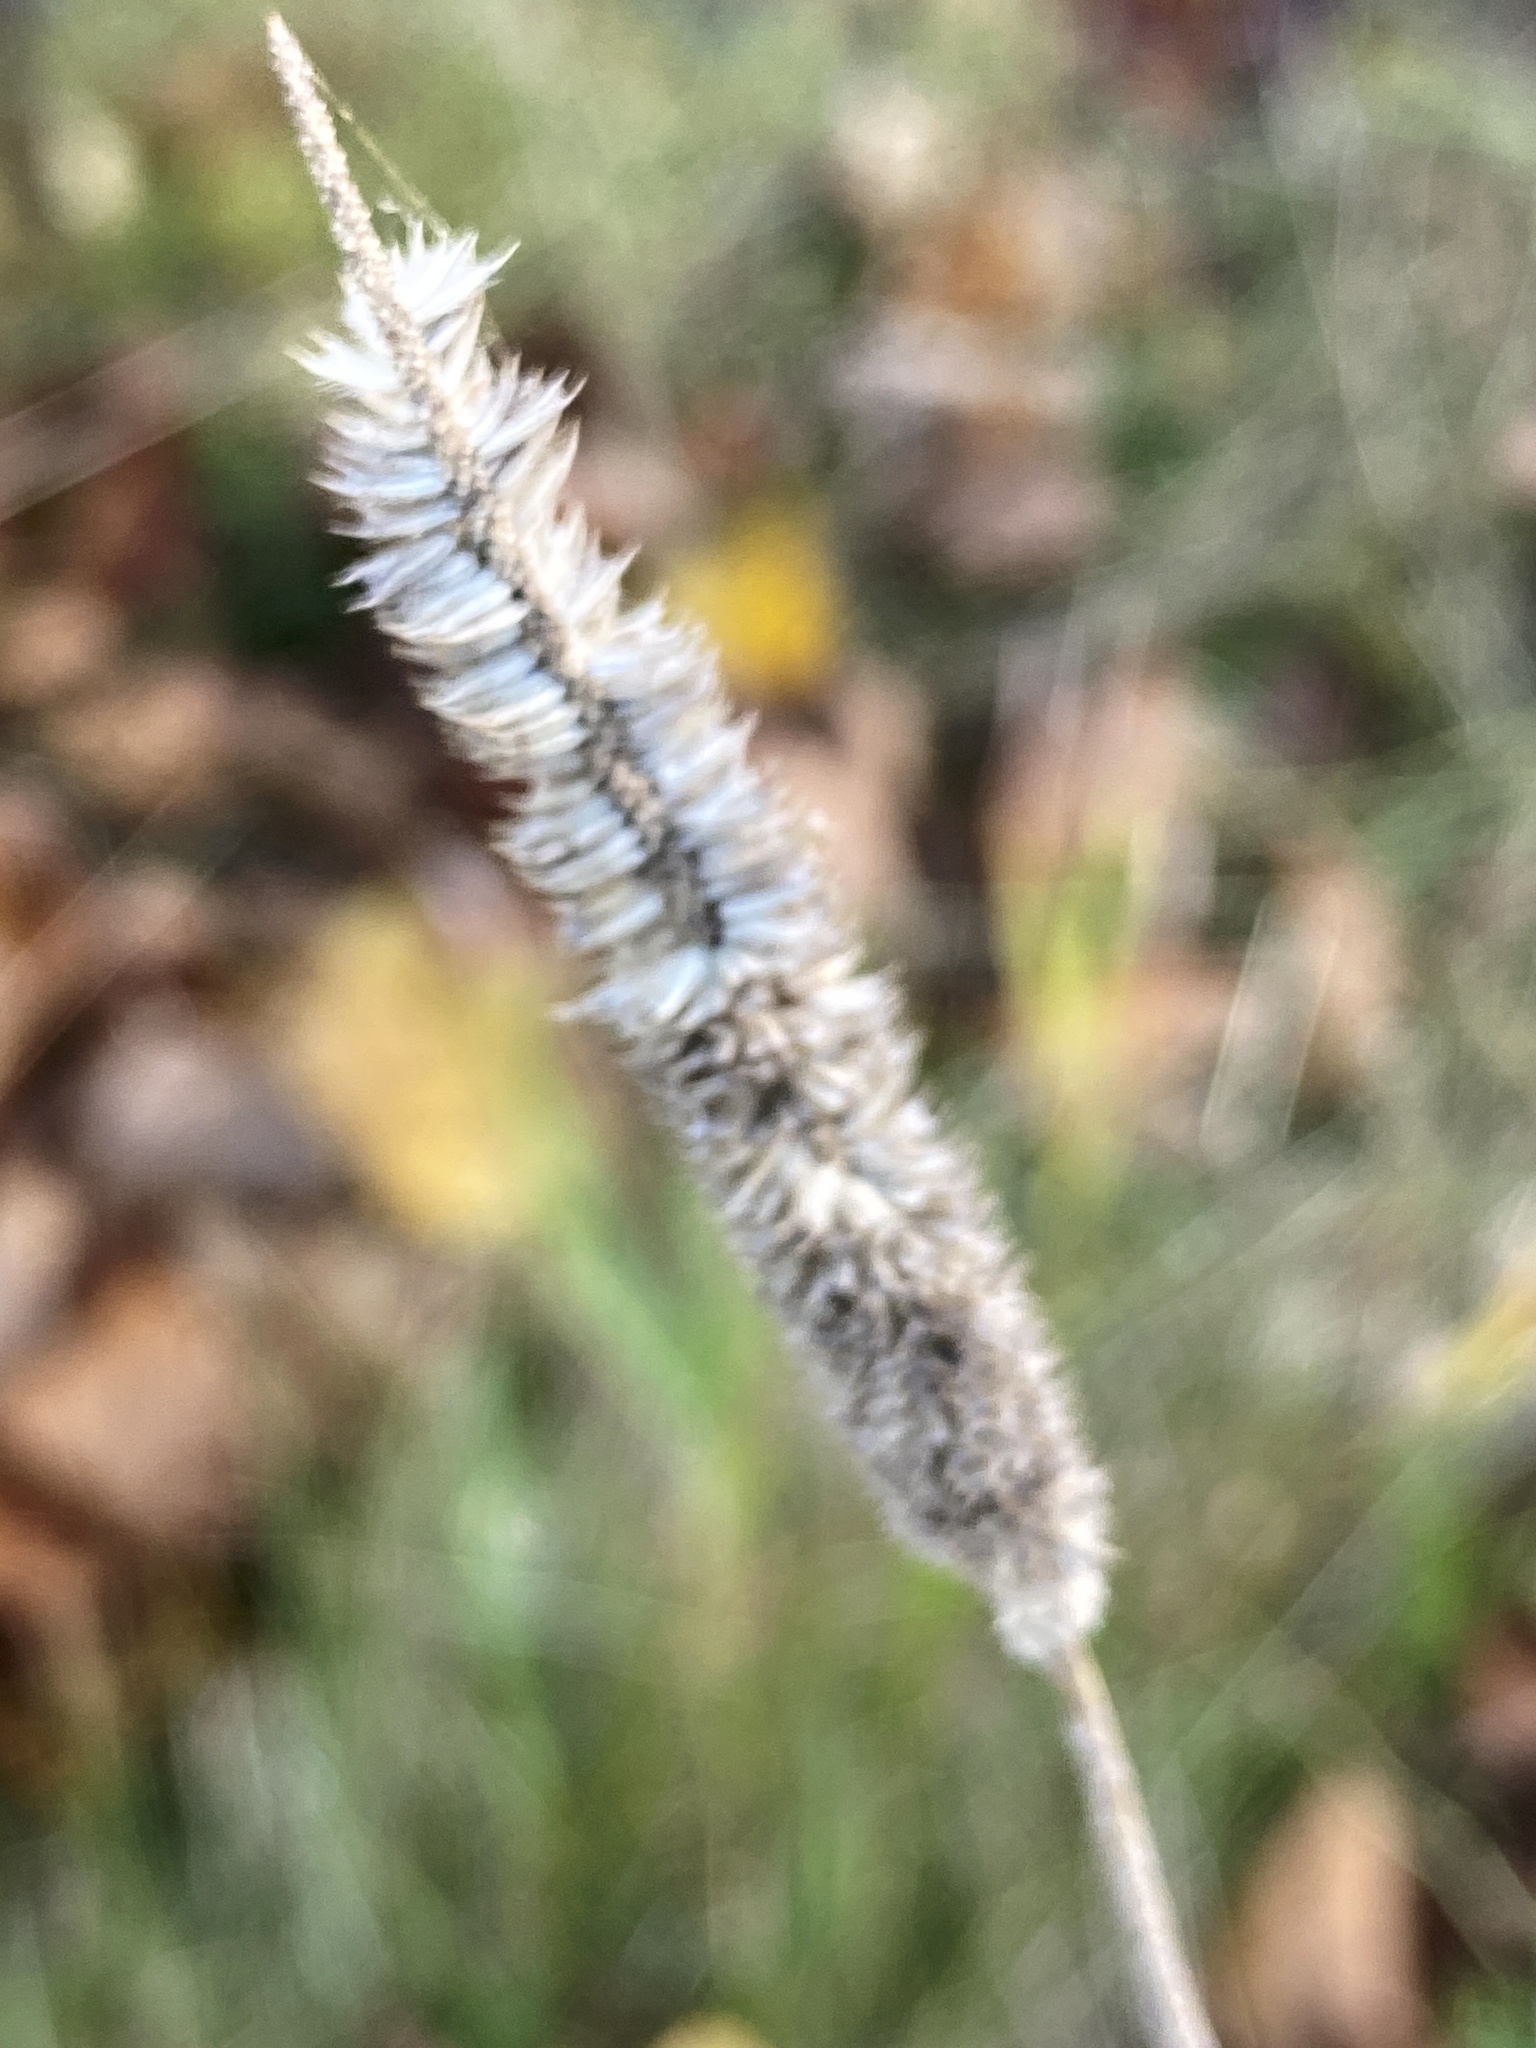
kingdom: Plantae
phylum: Tracheophyta
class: Liliopsida
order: Poales
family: Poaceae
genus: Phleum
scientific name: Phleum pratense
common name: Timothy grass
